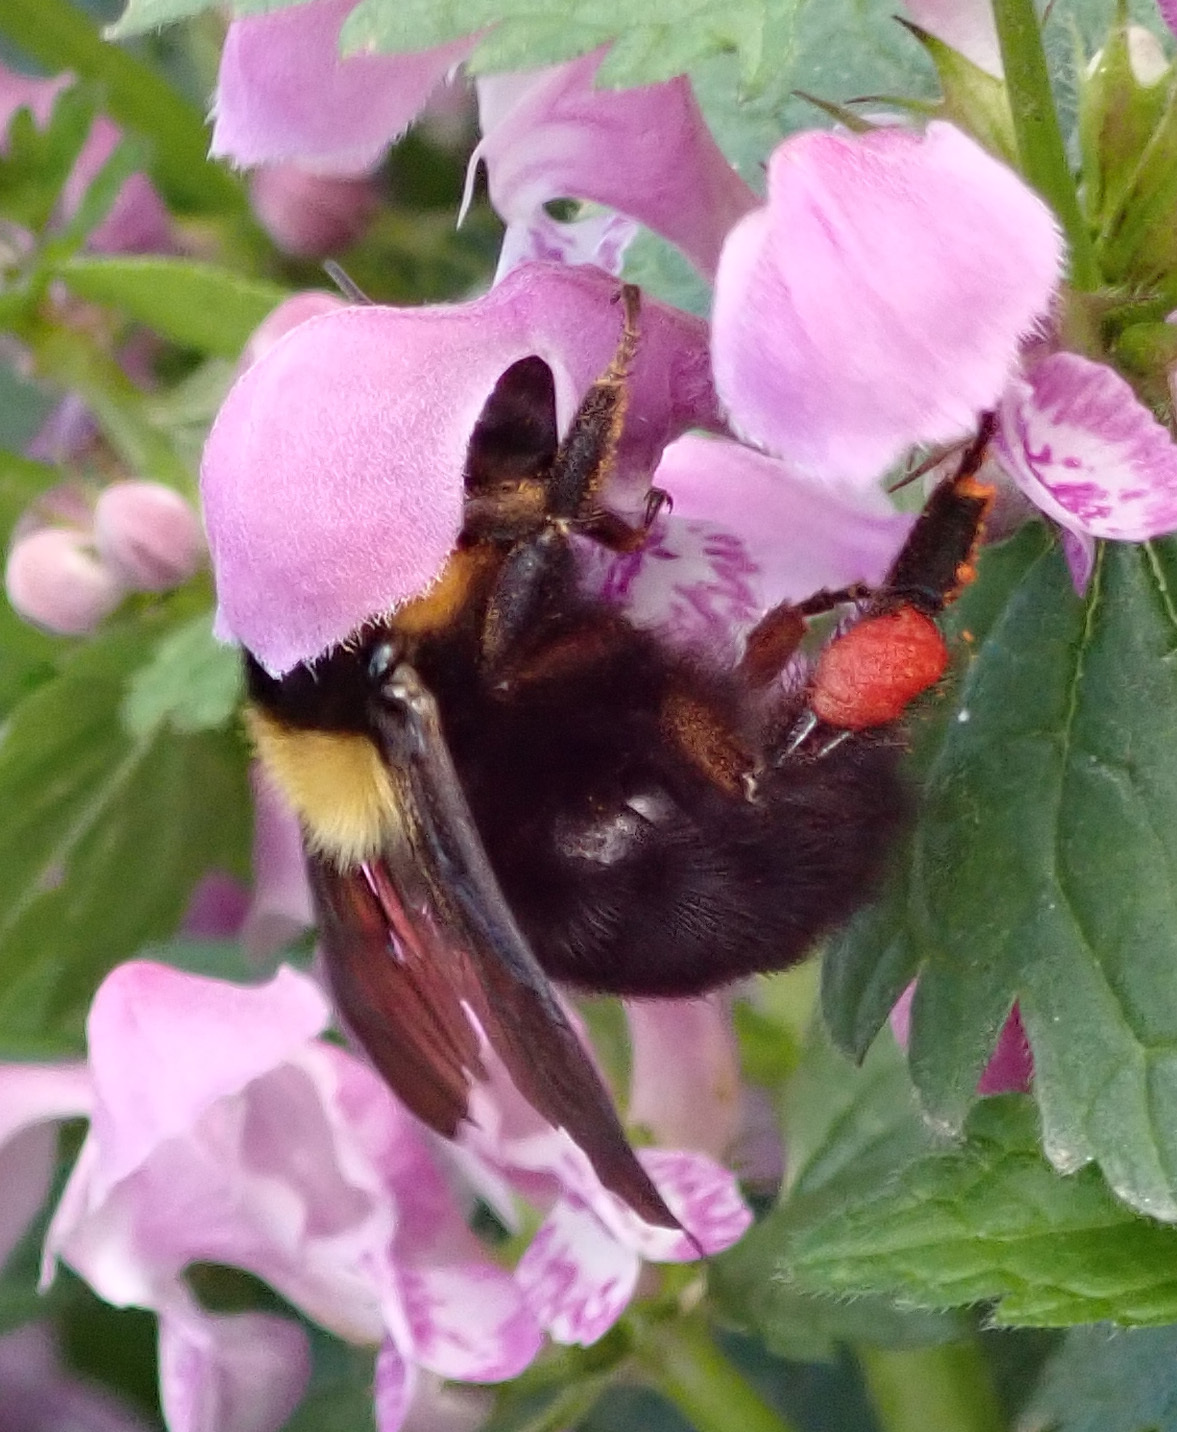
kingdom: Animalia
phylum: Arthropoda
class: Insecta
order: Hymenoptera
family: Apidae
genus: Bombus
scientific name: Bombus argillaceus
